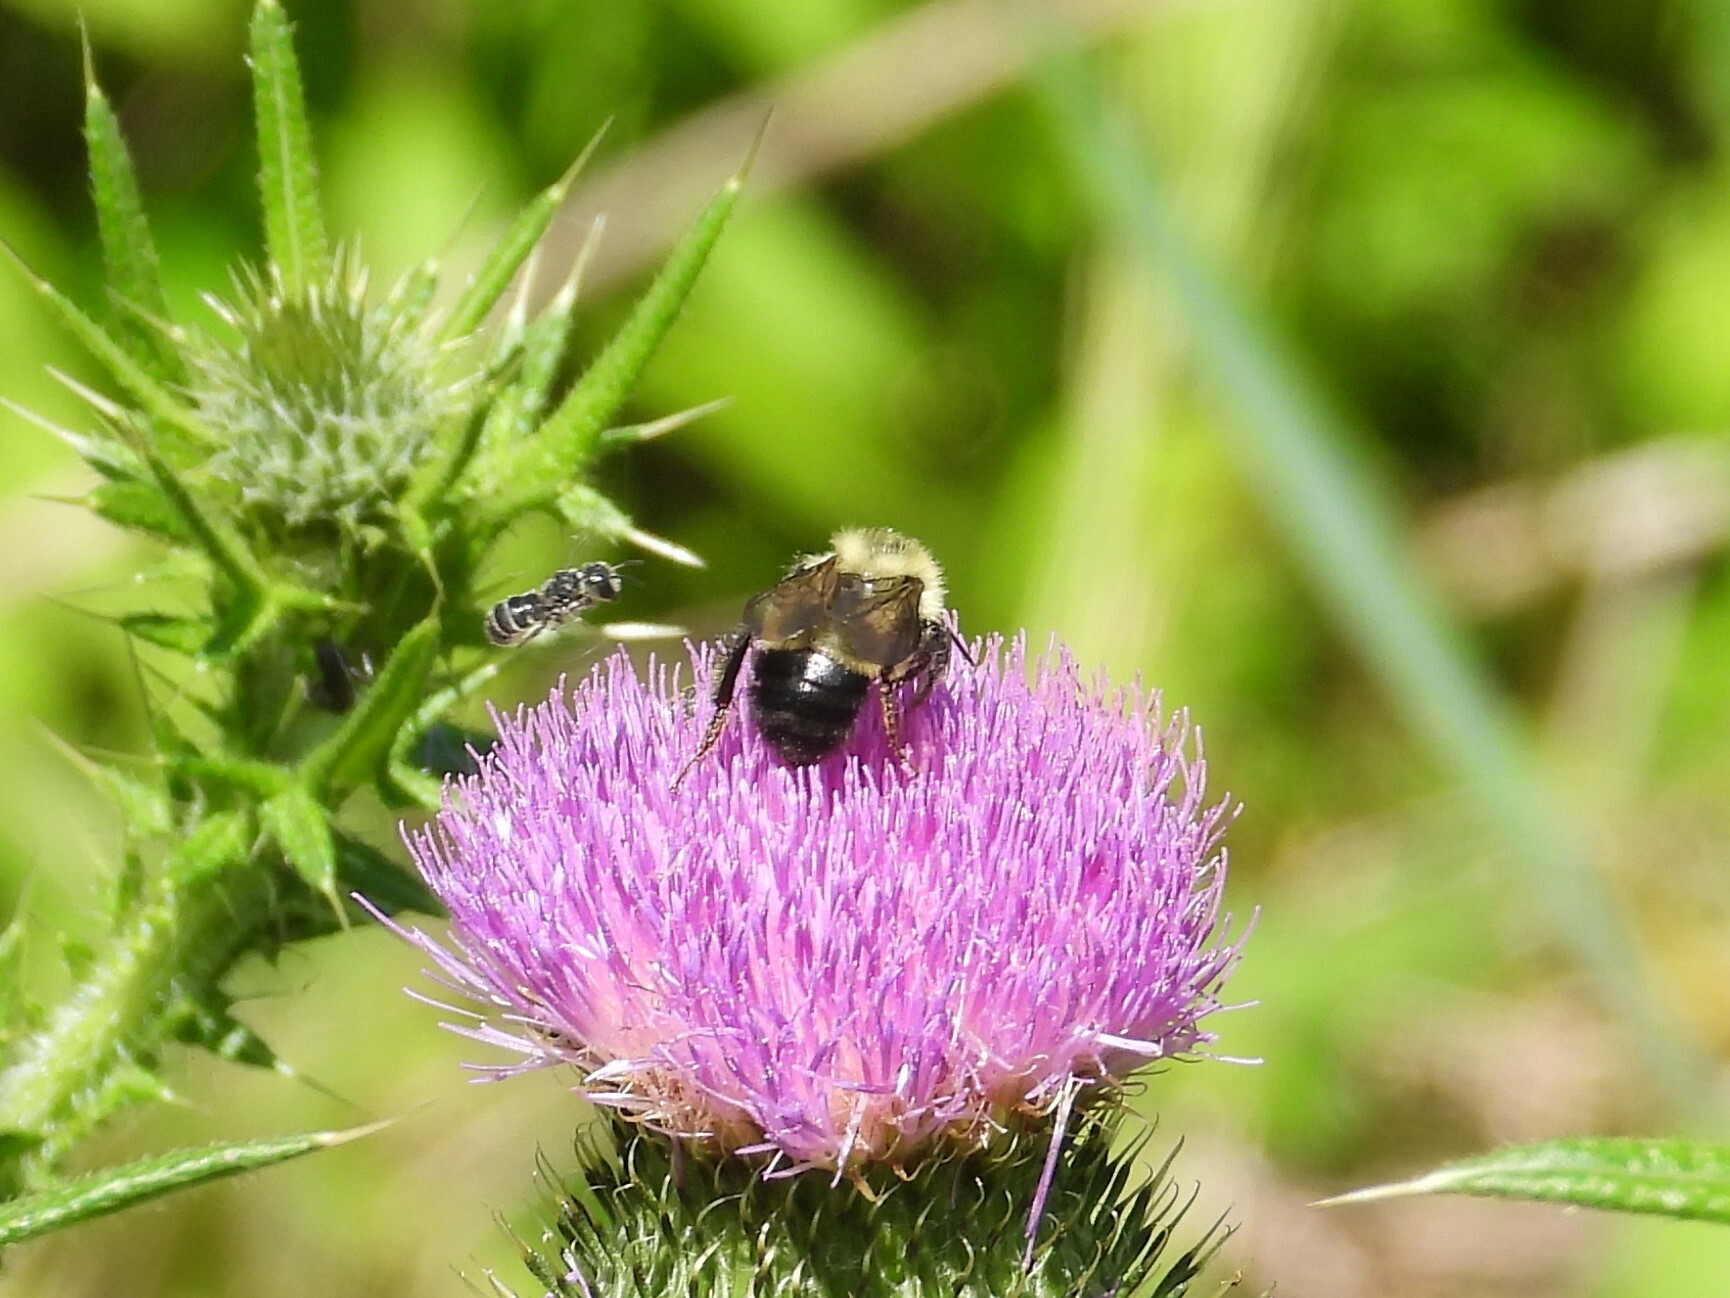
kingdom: Animalia
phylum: Arthropoda
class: Insecta
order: Hymenoptera
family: Apidae
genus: Pyrobombus
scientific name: Pyrobombus
